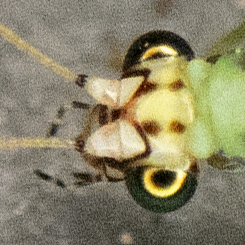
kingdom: Animalia
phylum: Arthropoda
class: Insecta
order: Neuroptera
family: Chrysopidae
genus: Chrysopa
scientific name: Chrysopa oculata
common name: Golden-eyed lacewing
